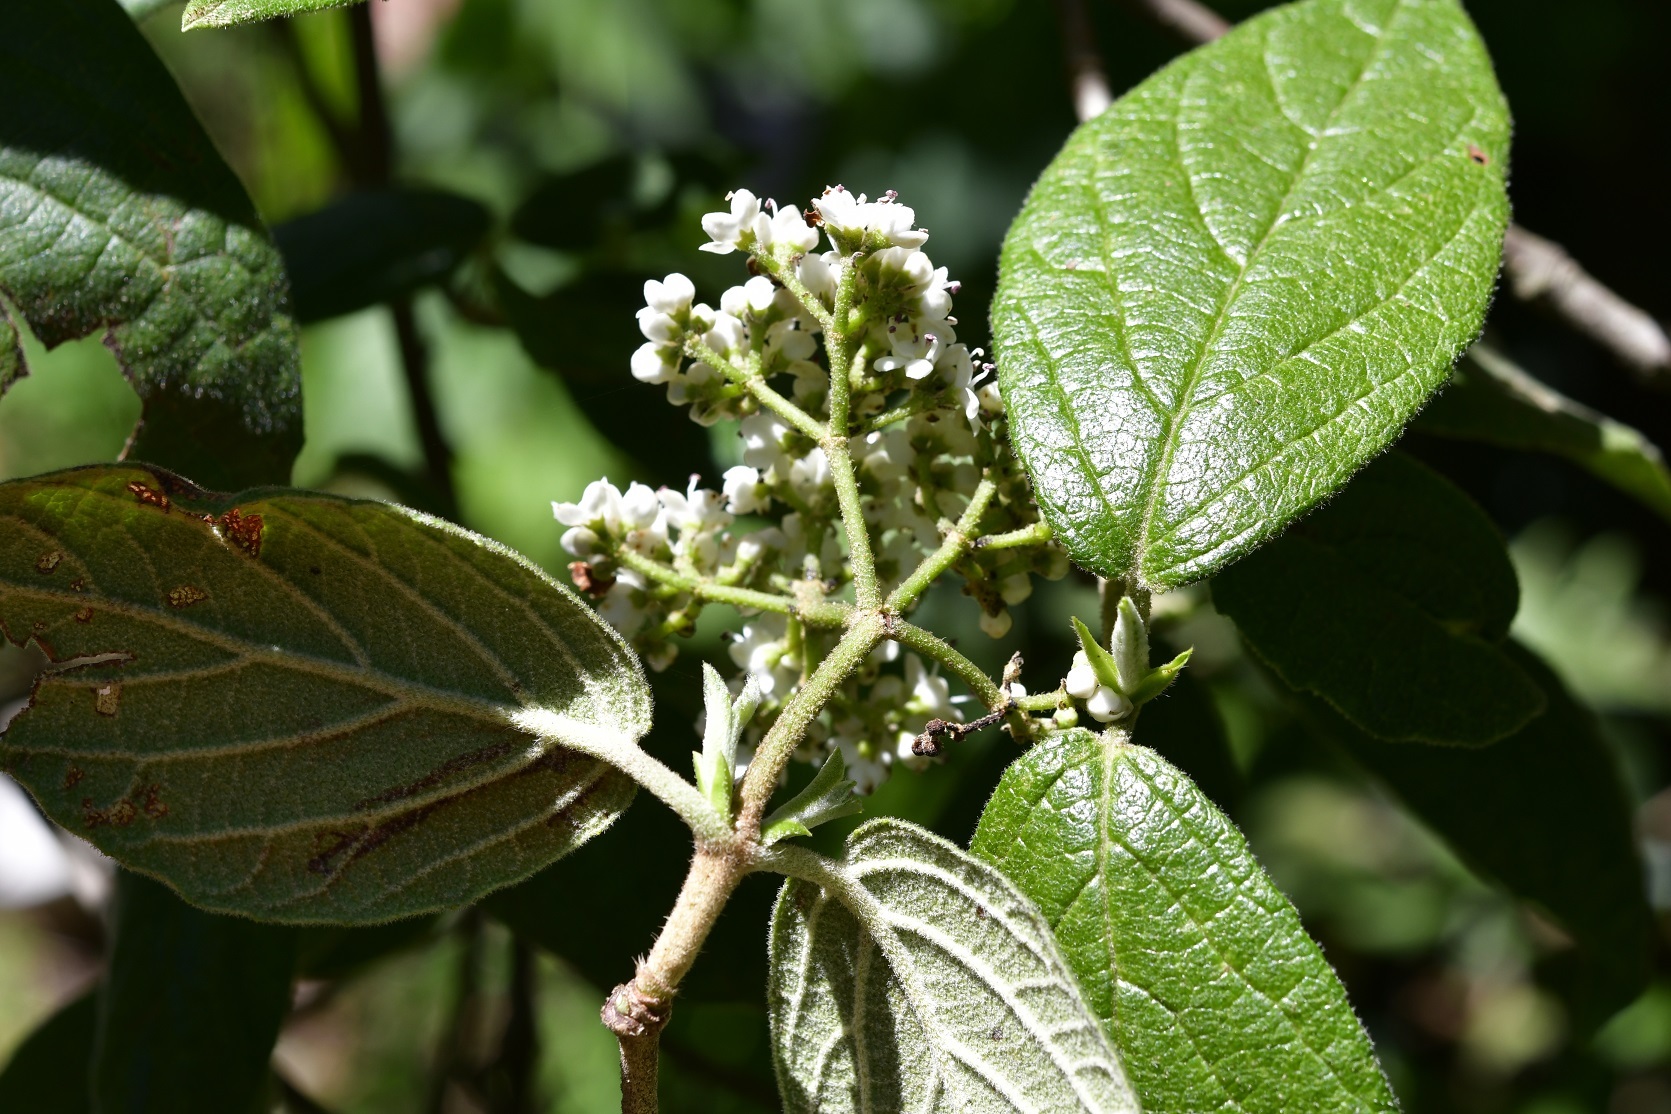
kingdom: Plantae
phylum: Tracheophyta
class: Magnoliopsida
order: Dipsacales
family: Viburnaceae
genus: Viburnum
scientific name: Viburnum jucundum
